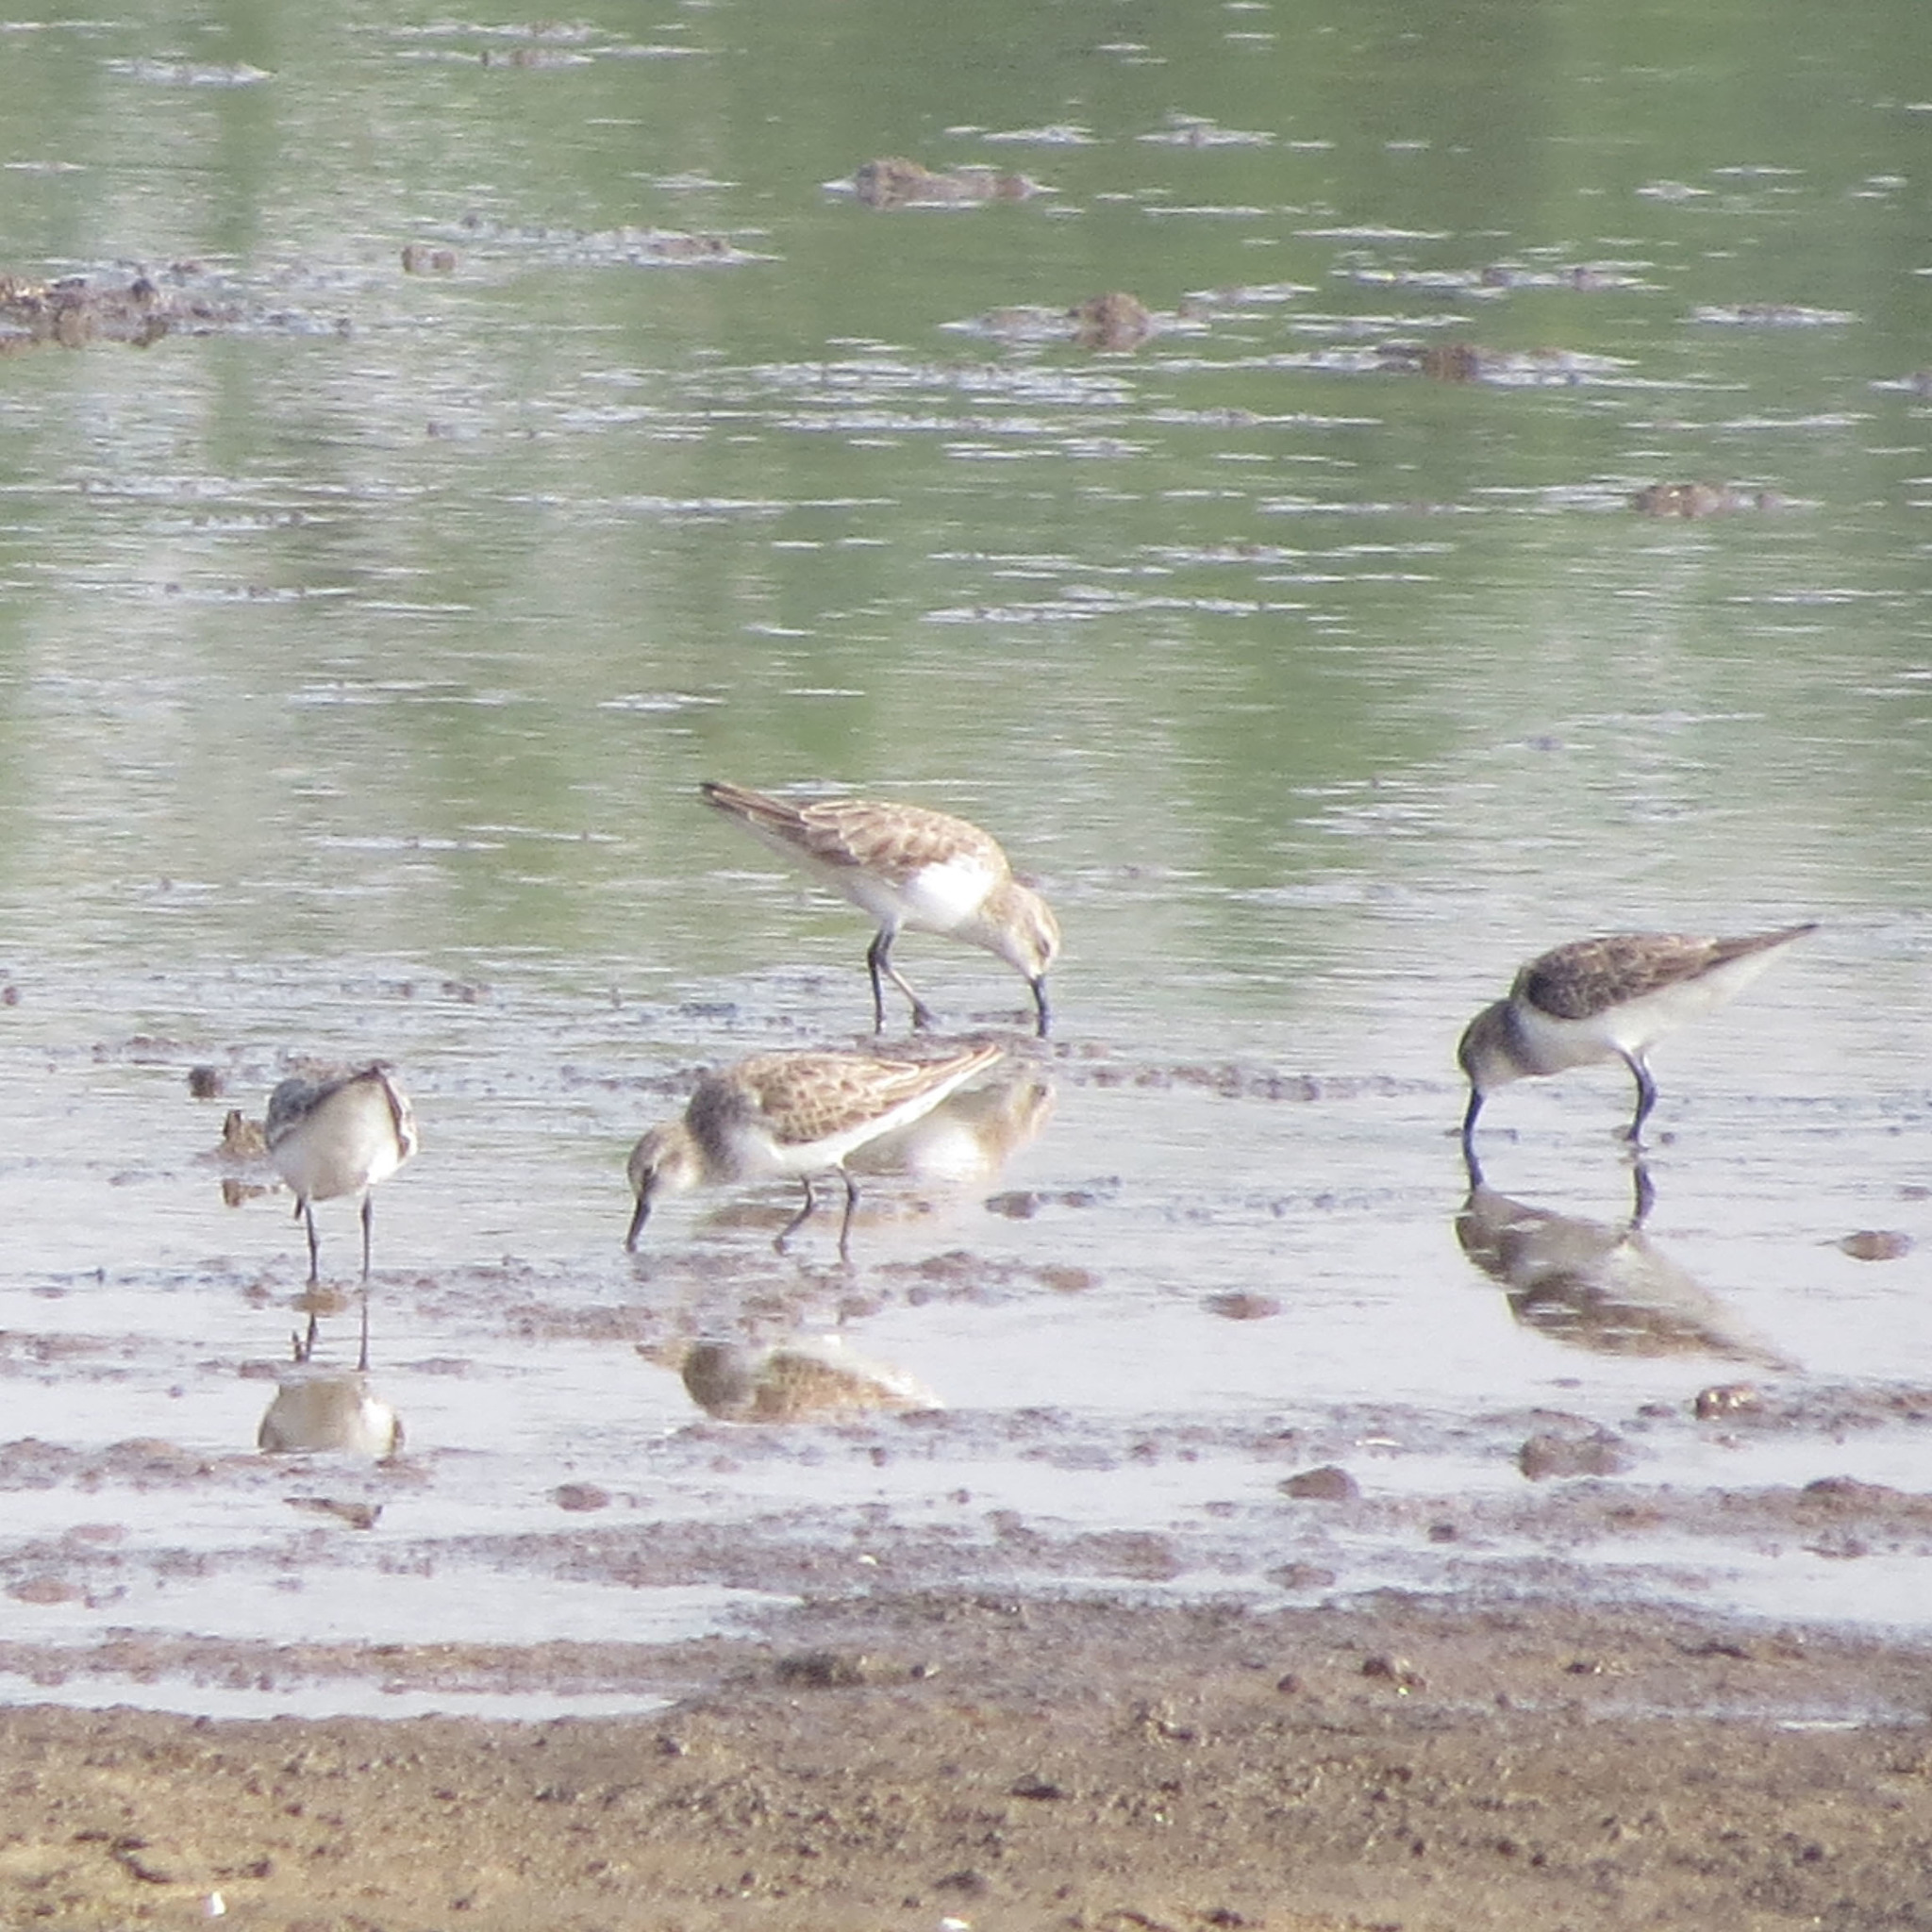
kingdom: Animalia
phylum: Chordata
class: Aves
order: Charadriiformes
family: Scolopacidae
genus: Calidris
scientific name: Calidris minuta
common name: Little stint
